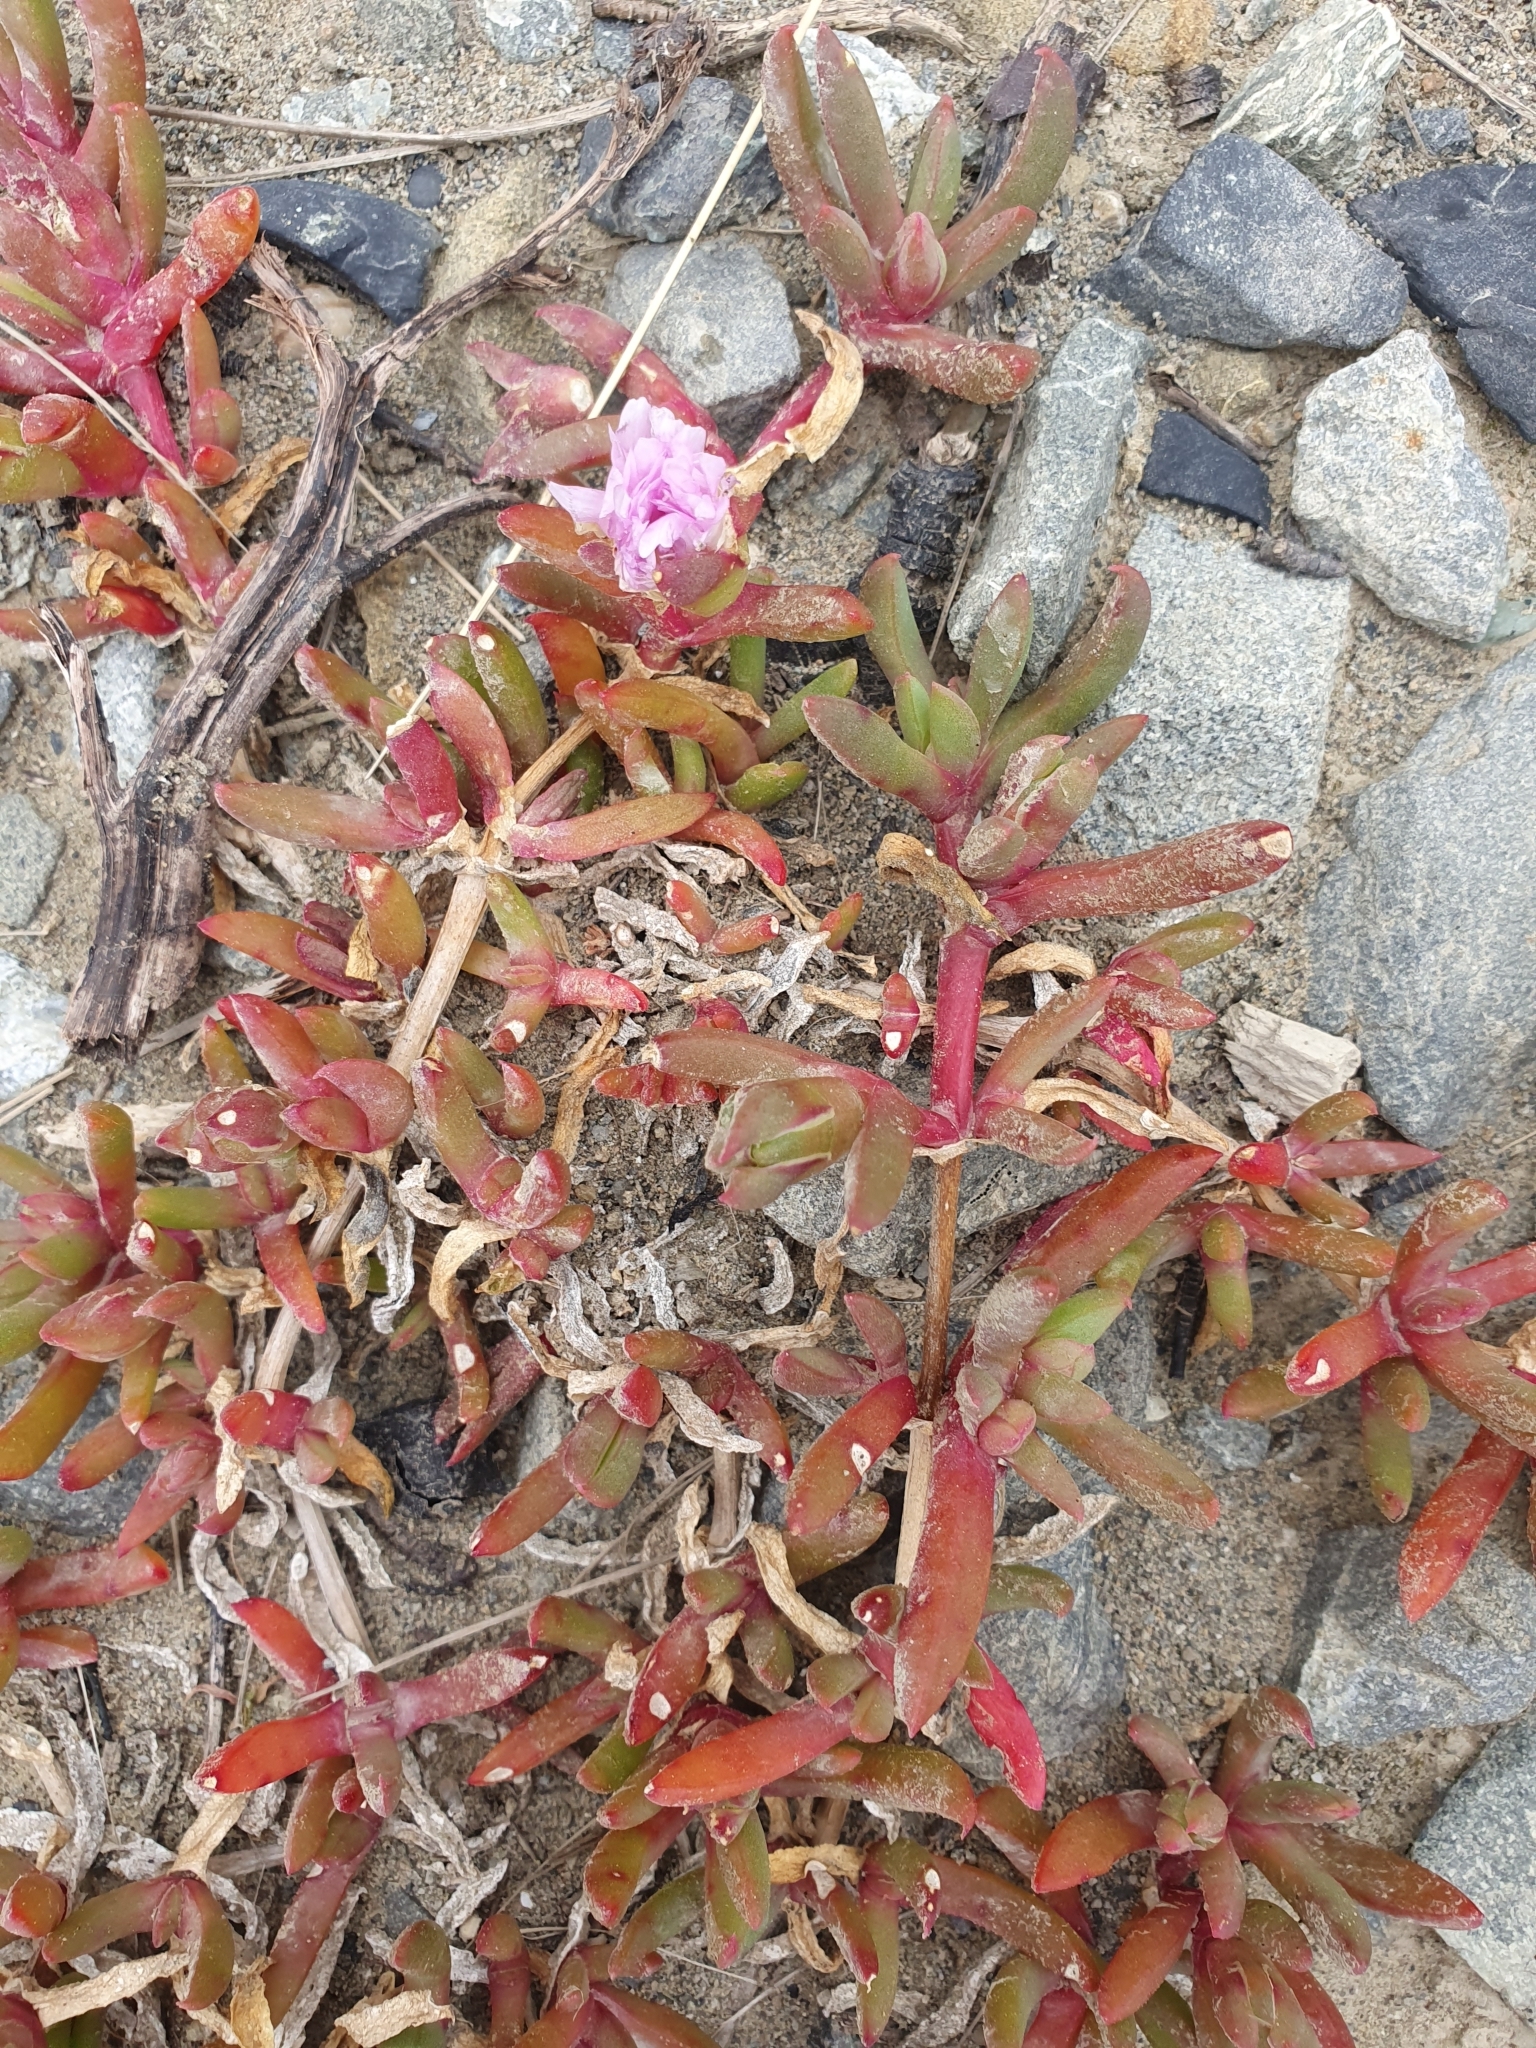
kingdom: Plantae
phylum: Tracheophyta
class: Magnoliopsida
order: Caryophyllales
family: Aizoaceae
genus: Disphyma
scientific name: Disphyma australe
